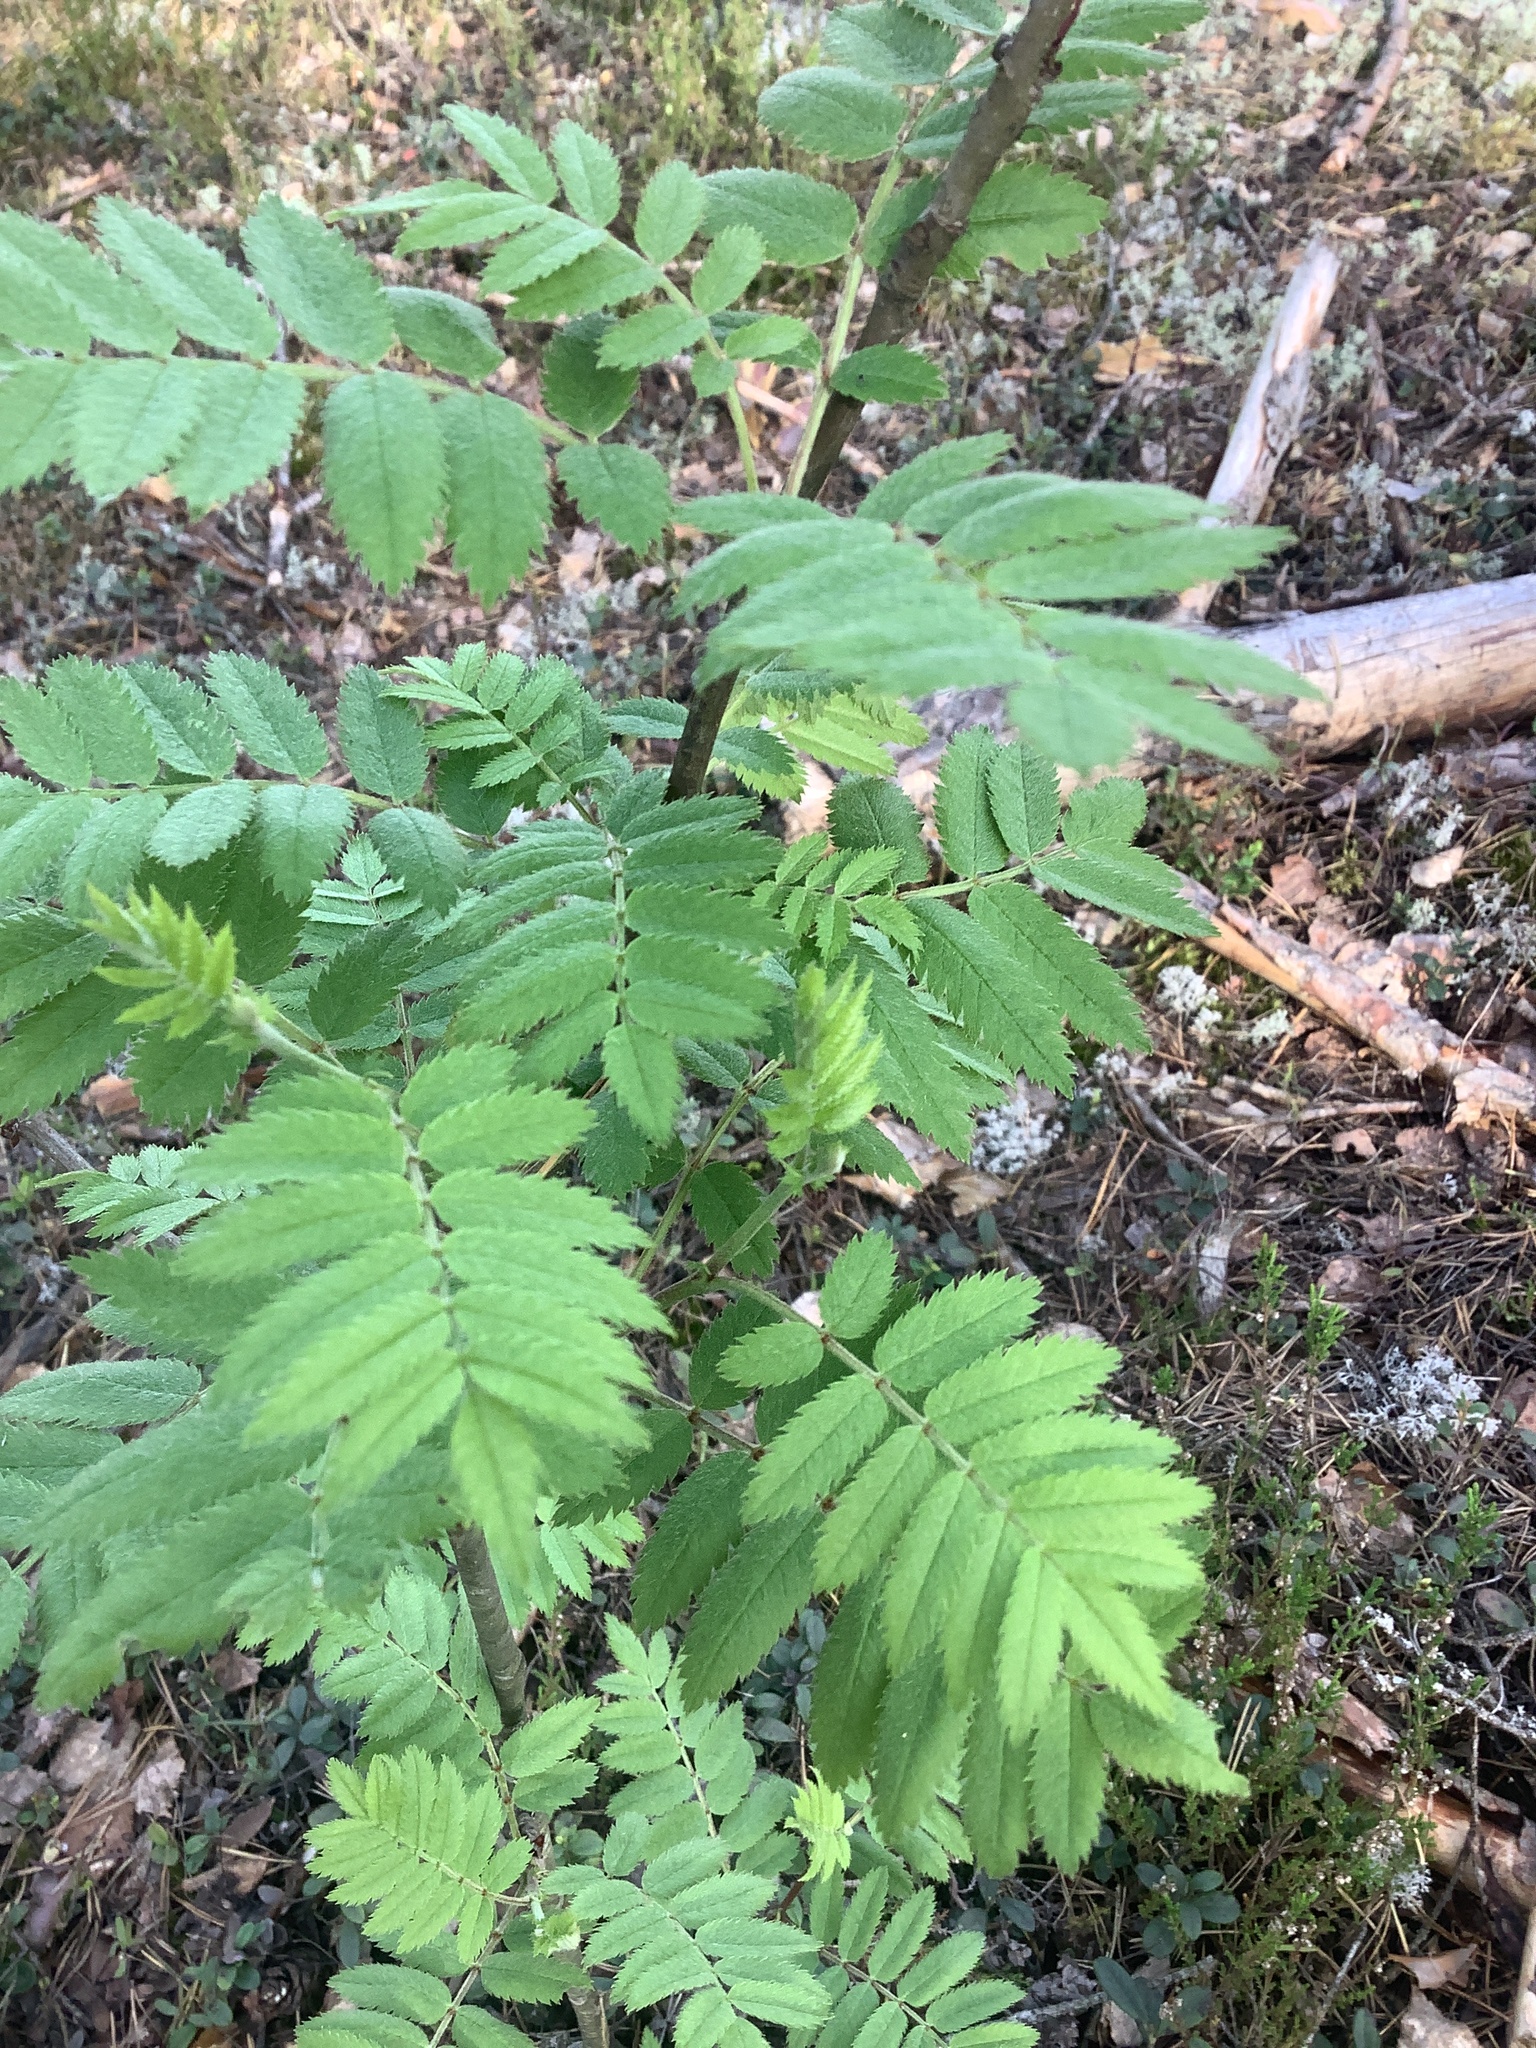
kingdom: Plantae
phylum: Tracheophyta
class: Magnoliopsida
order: Rosales
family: Rosaceae
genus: Sorbus
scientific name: Sorbus aucuparia
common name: Rowan
